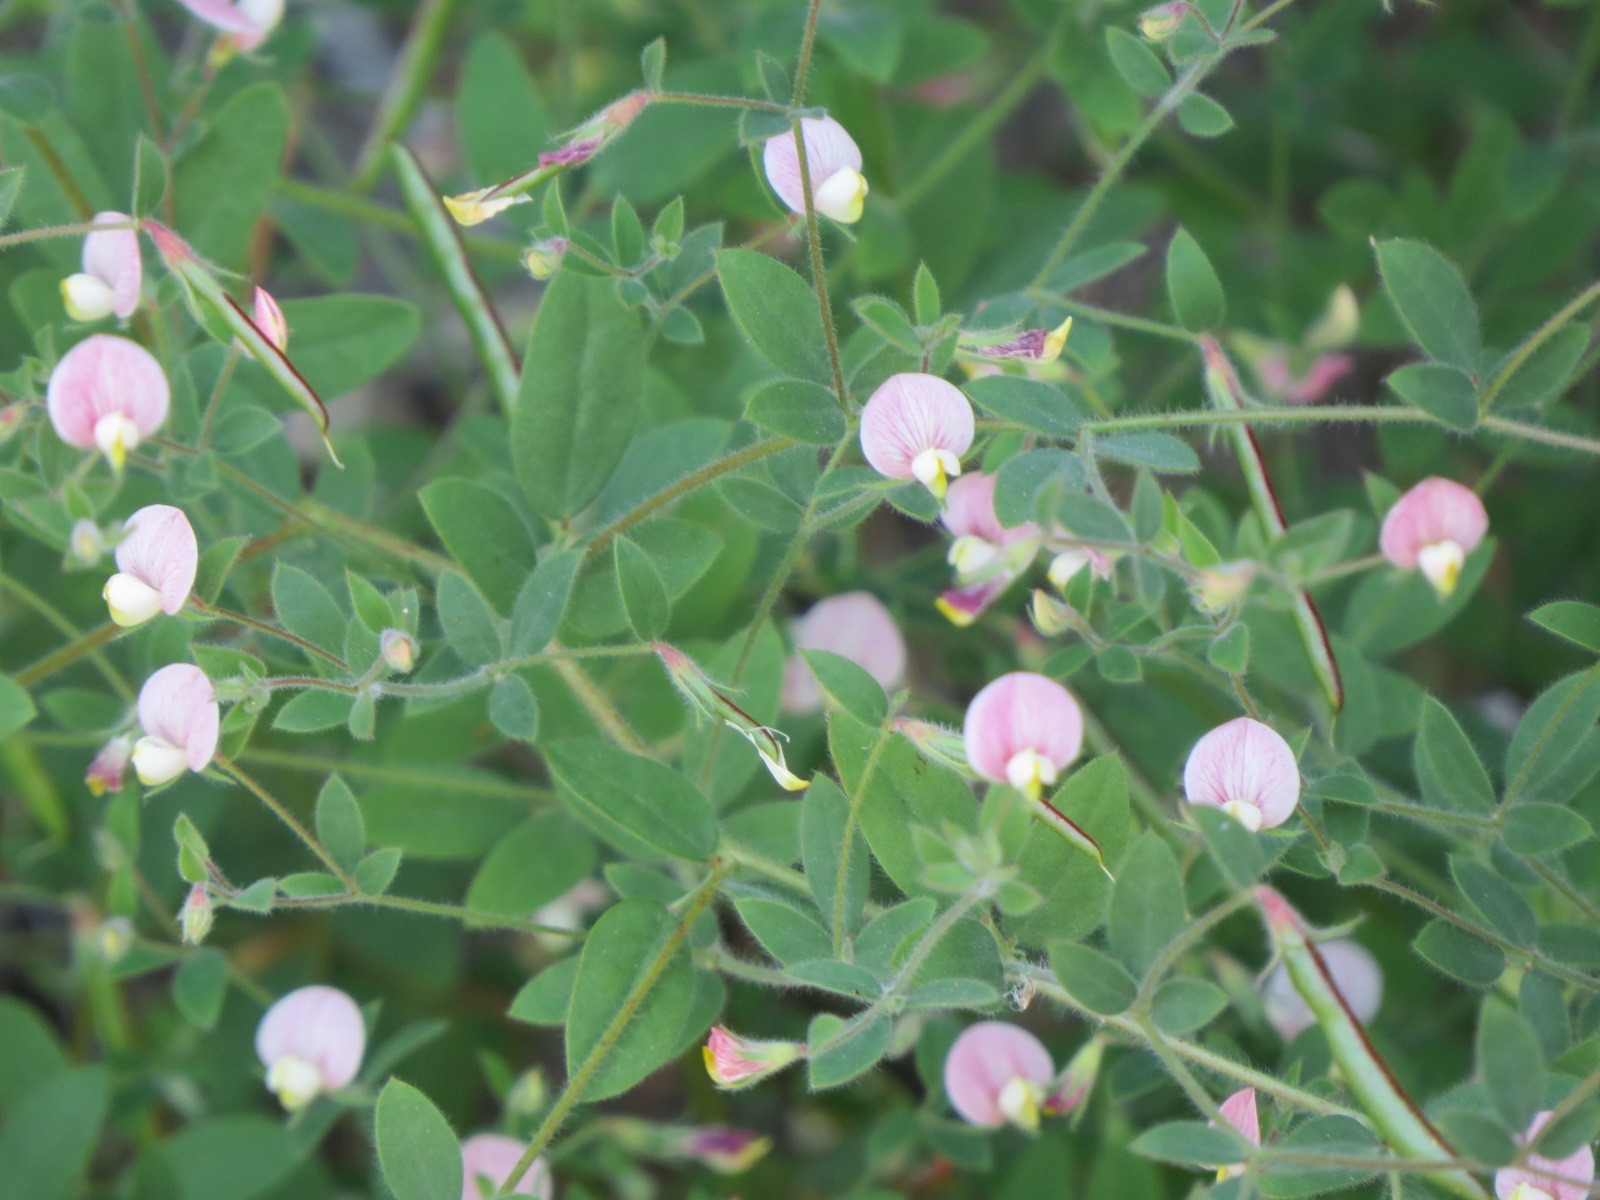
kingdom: Plantae
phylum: Tracheophyta
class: Magnoliopsida
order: Fabales
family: Fabaceae
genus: Acmispon
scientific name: Acmispon americanus
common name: American bird's-foot trefoil
